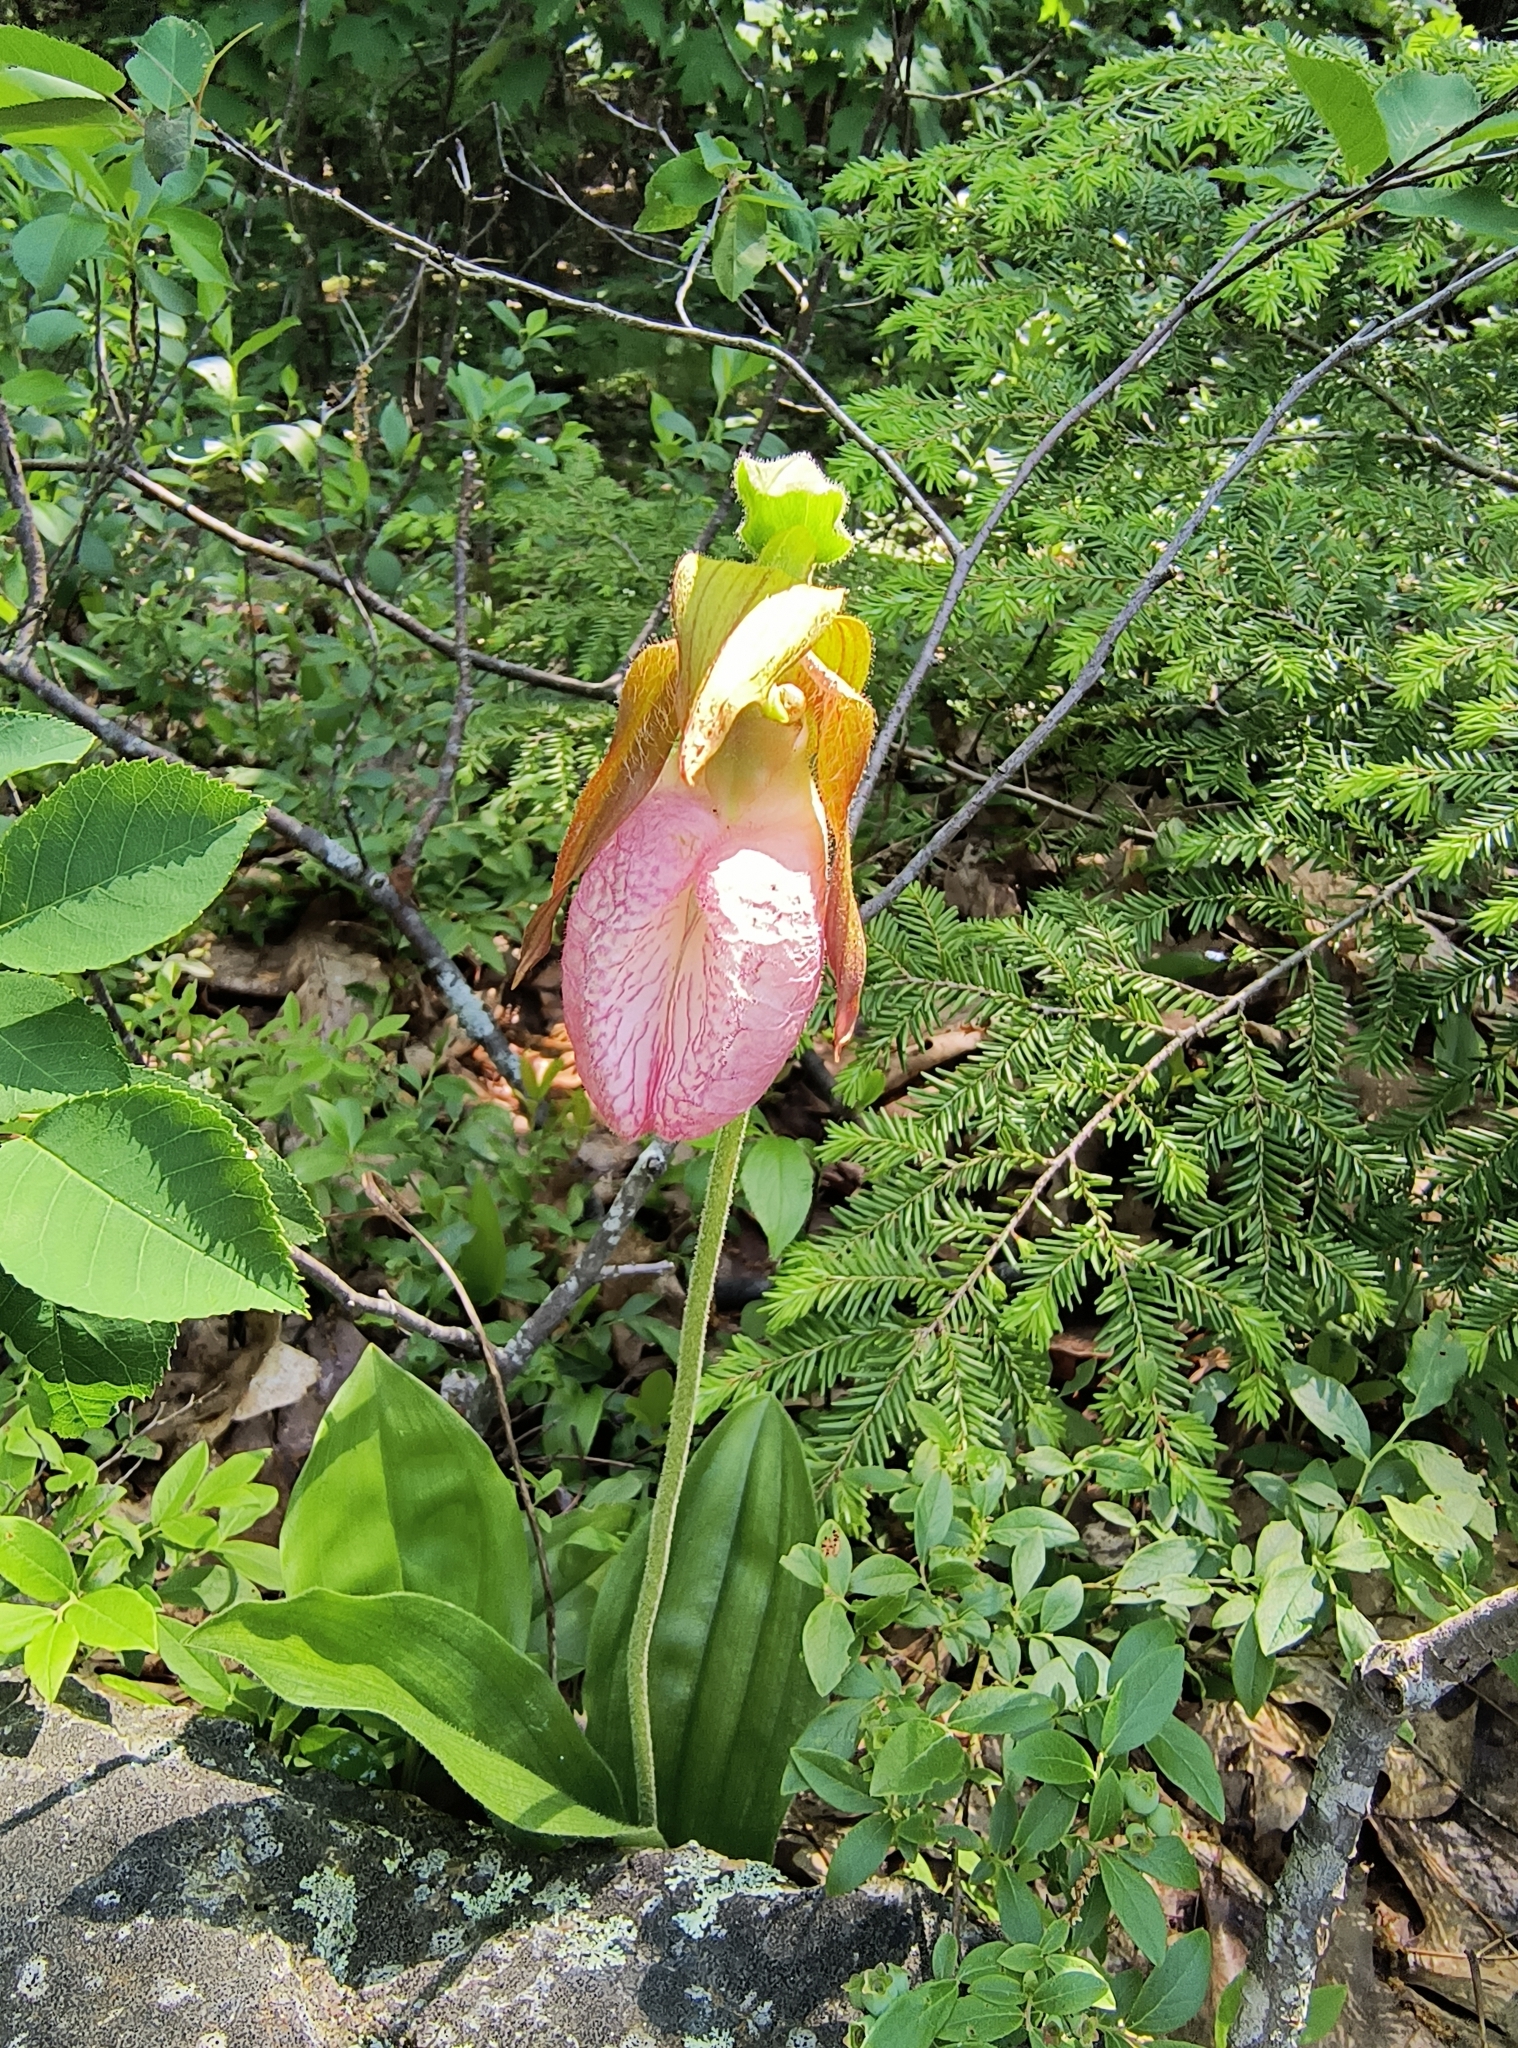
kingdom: Plantae
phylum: Tracheophyta
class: Liliopsida
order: Asparagales
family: Orchidaceae
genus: Cypripedium
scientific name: Cypripedium acaule
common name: Pink lady's-slipper
